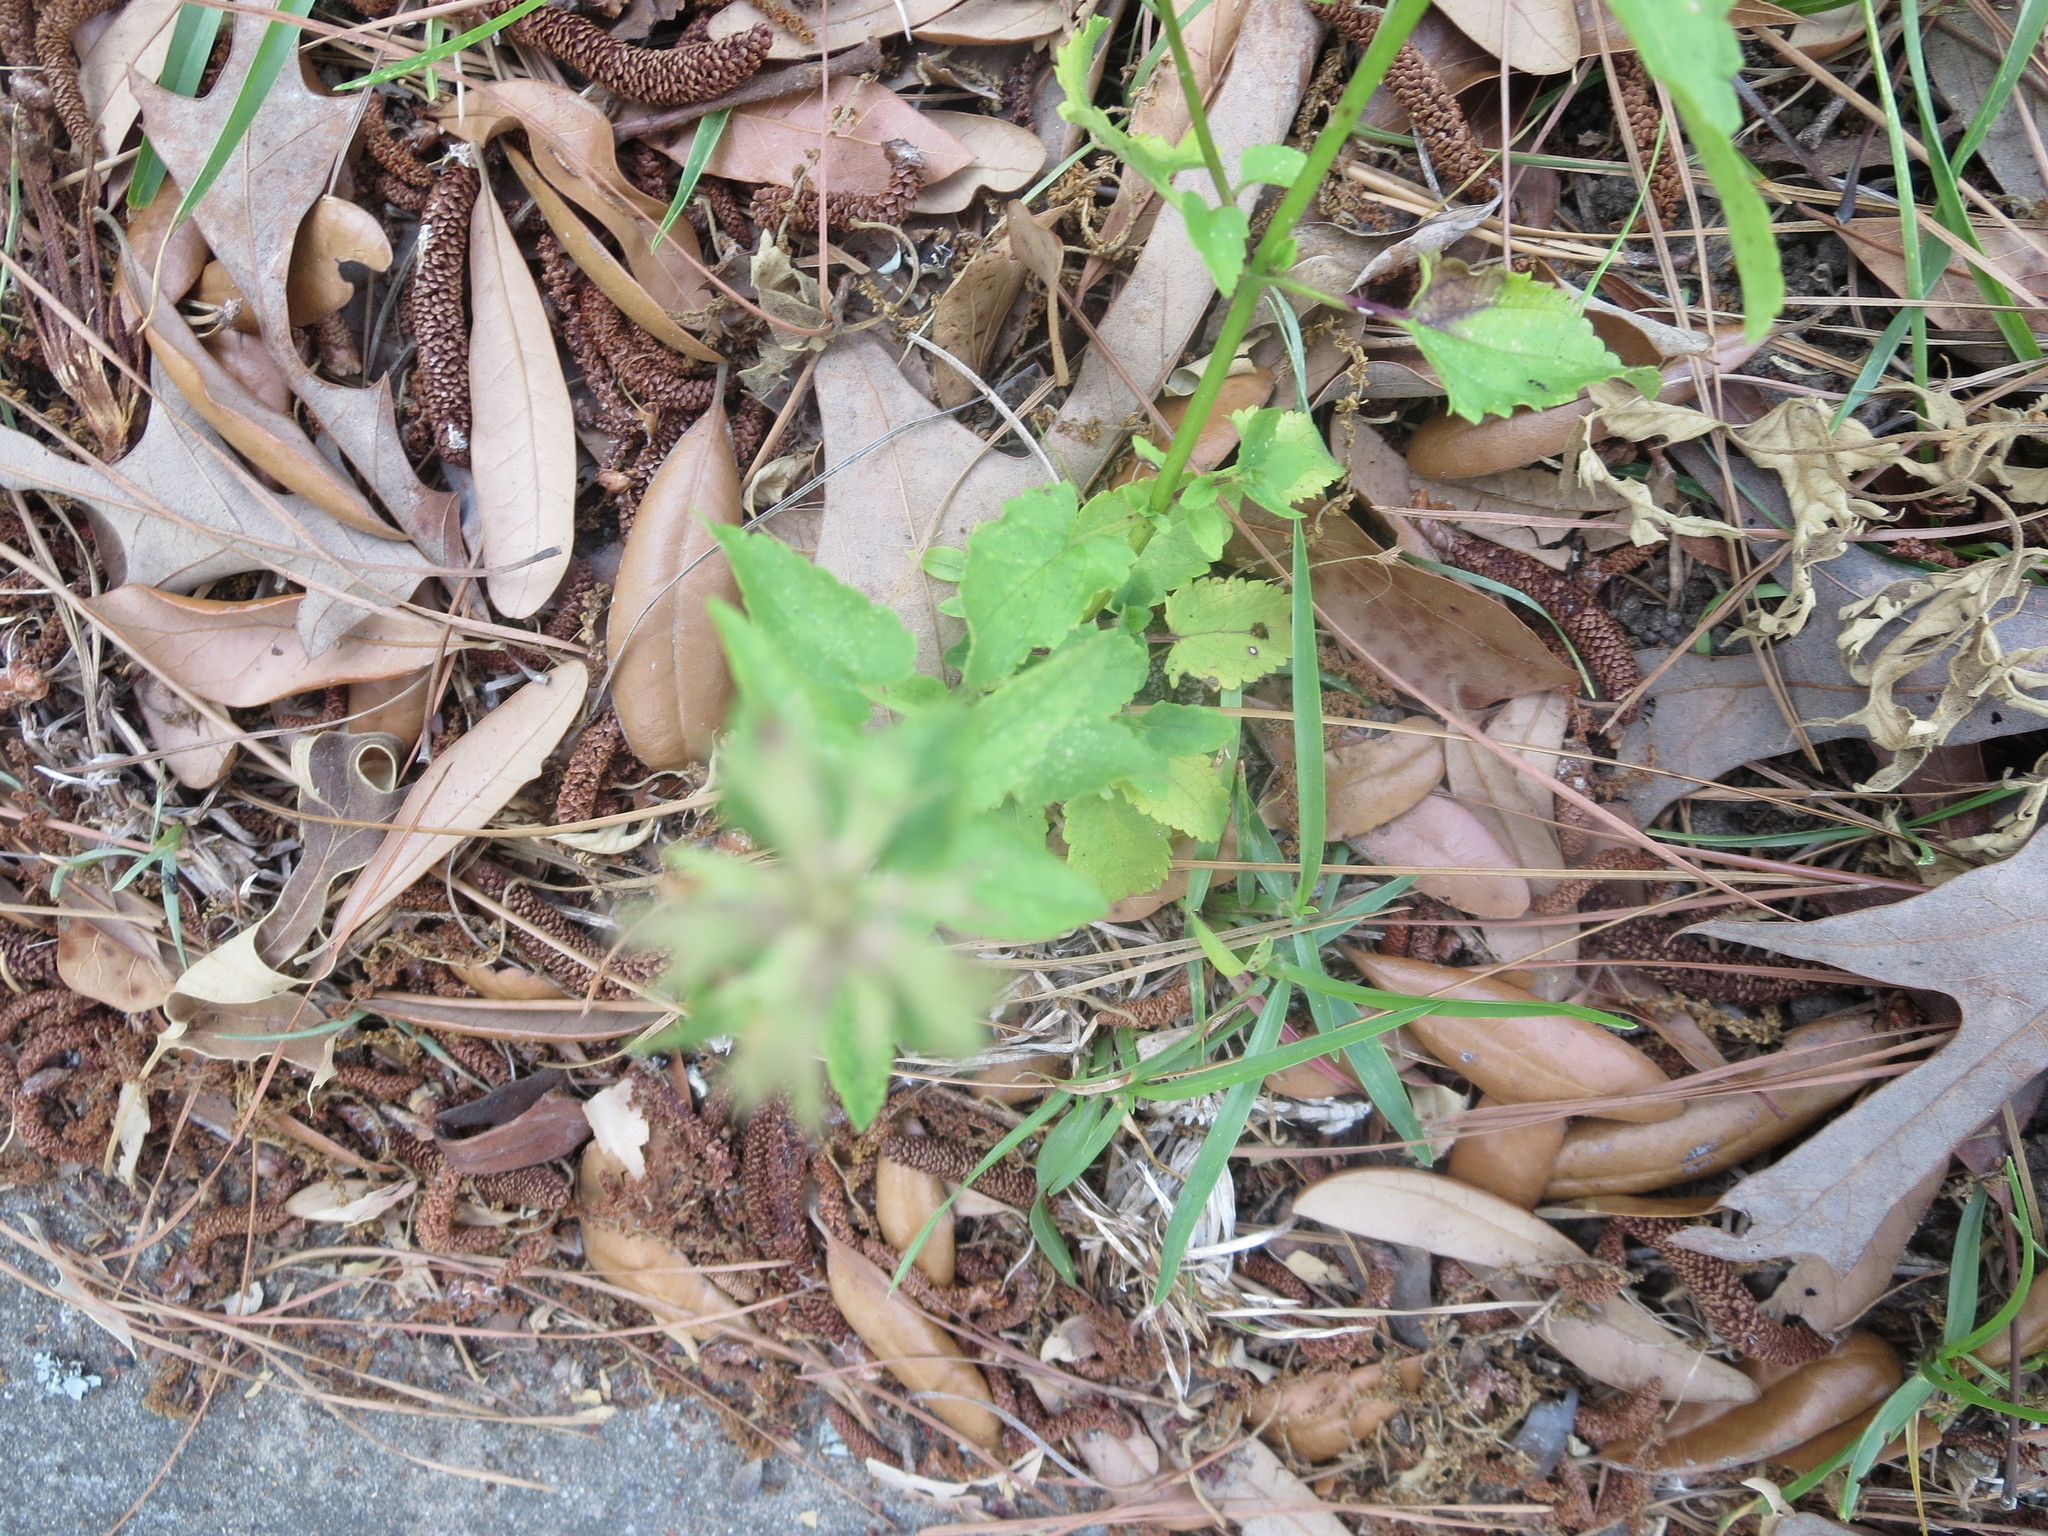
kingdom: Plantae
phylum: Tracheophyta
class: Magnoliopsida
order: Lamiales
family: Lamiaceae
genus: Stachys
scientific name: Stachys floridana
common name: Florida betony
